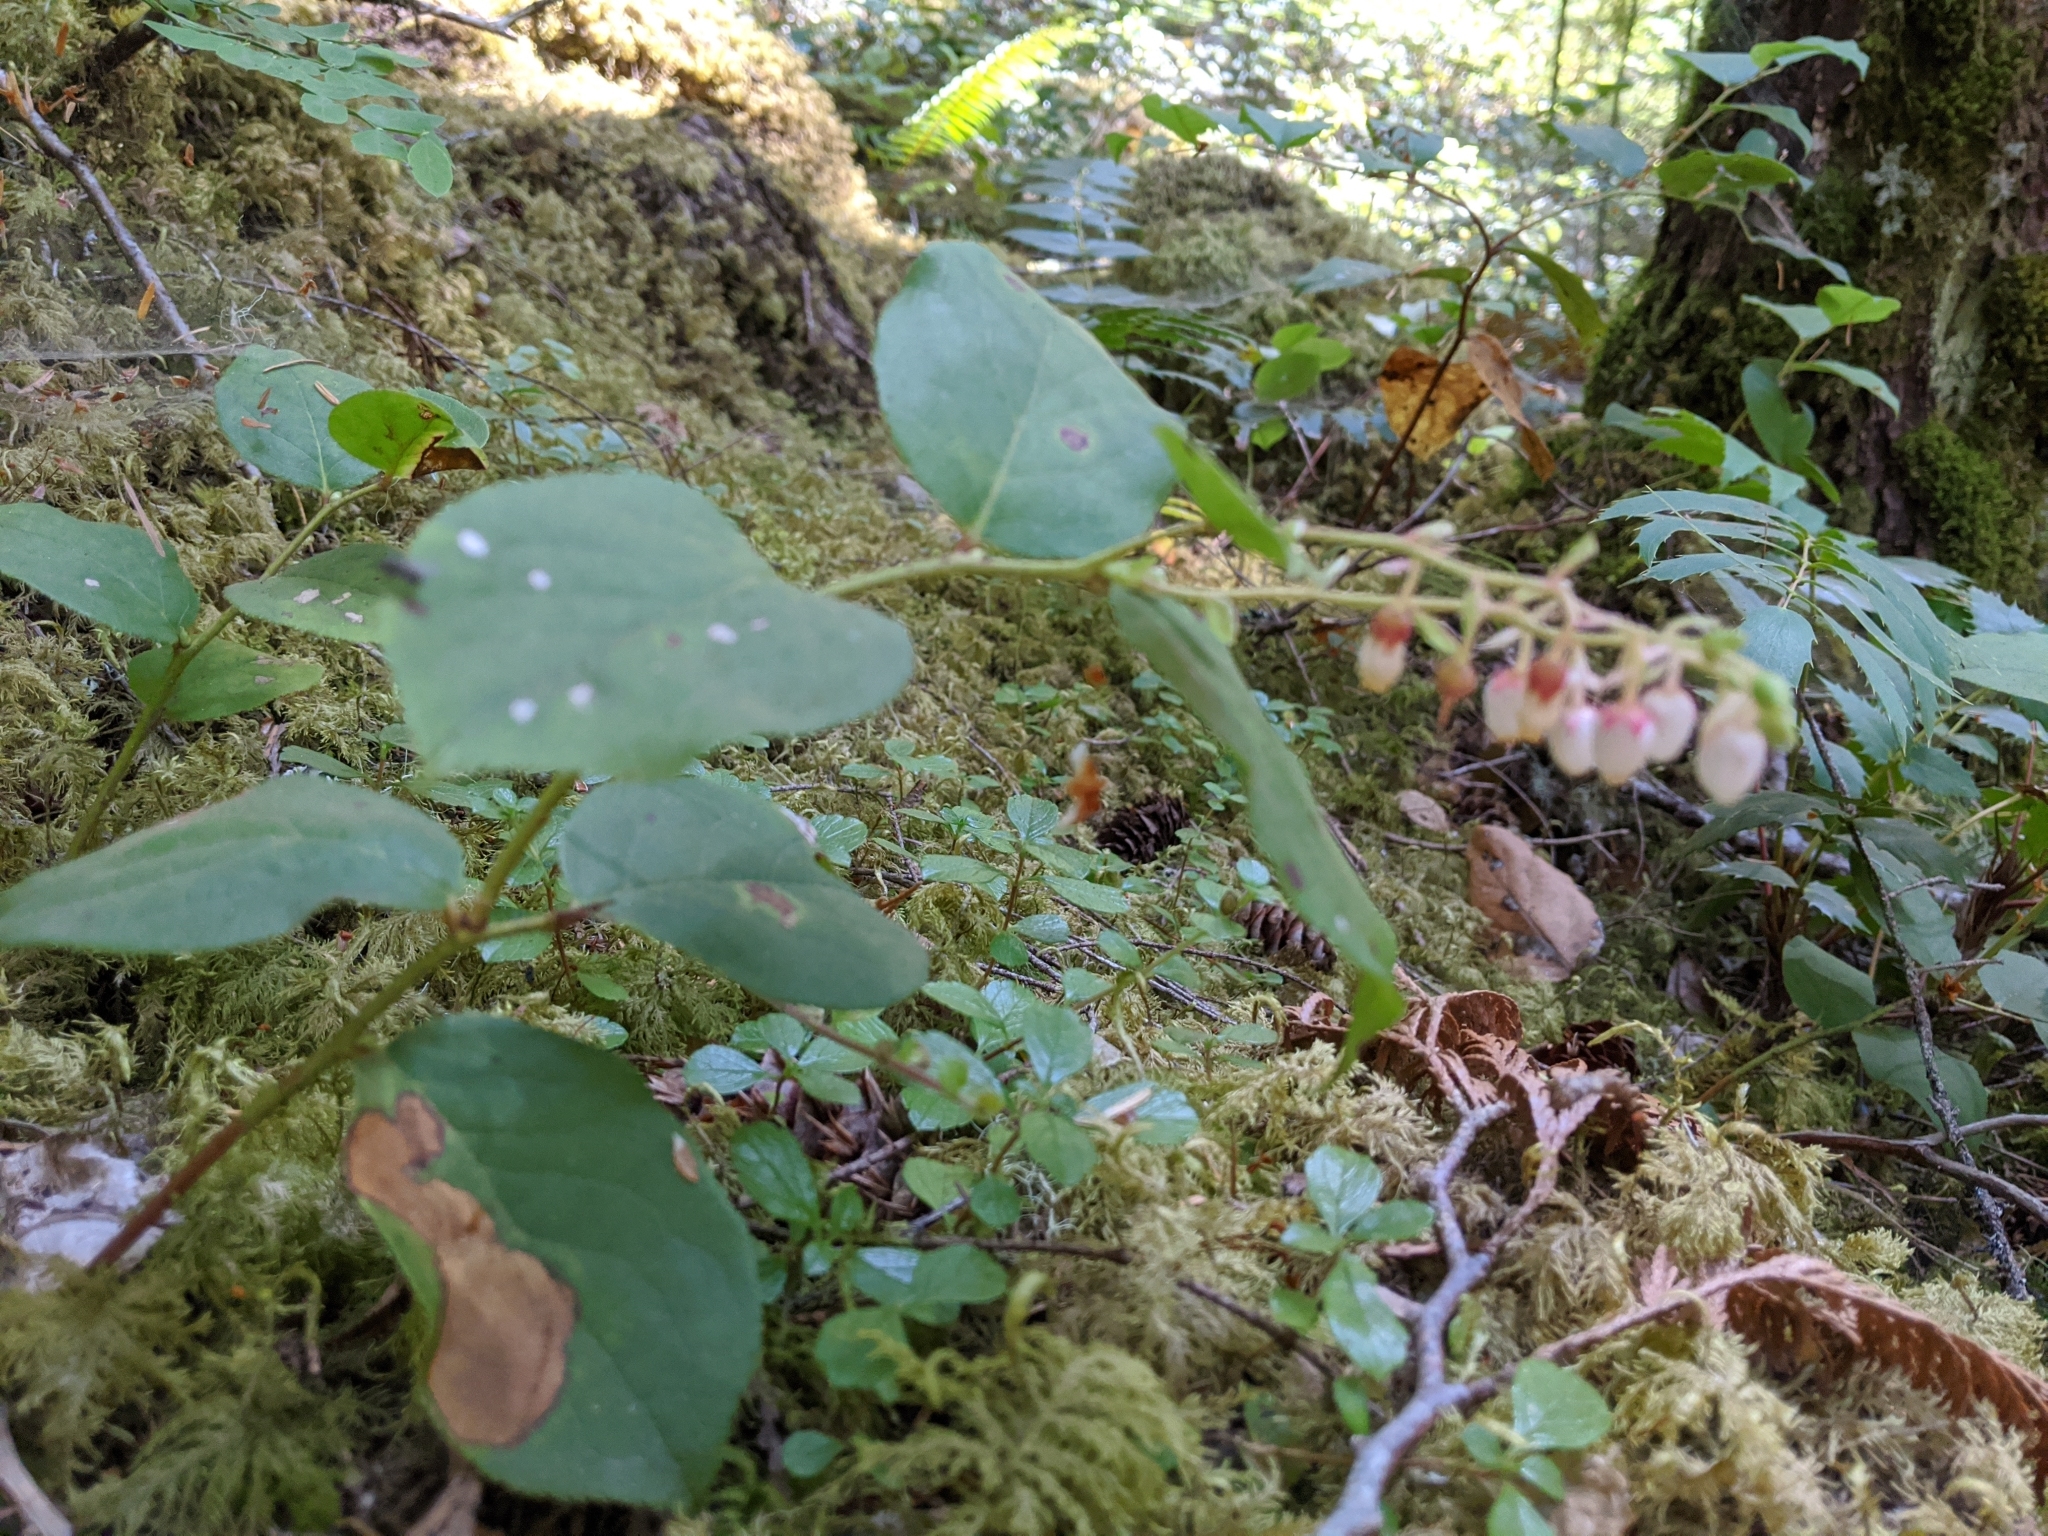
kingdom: Plantae
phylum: Tracheophyta
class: Magnoliopsida
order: Ericales
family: Ericaceae
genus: Gaultheria
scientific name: Gaultheria shallon
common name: Shallon
